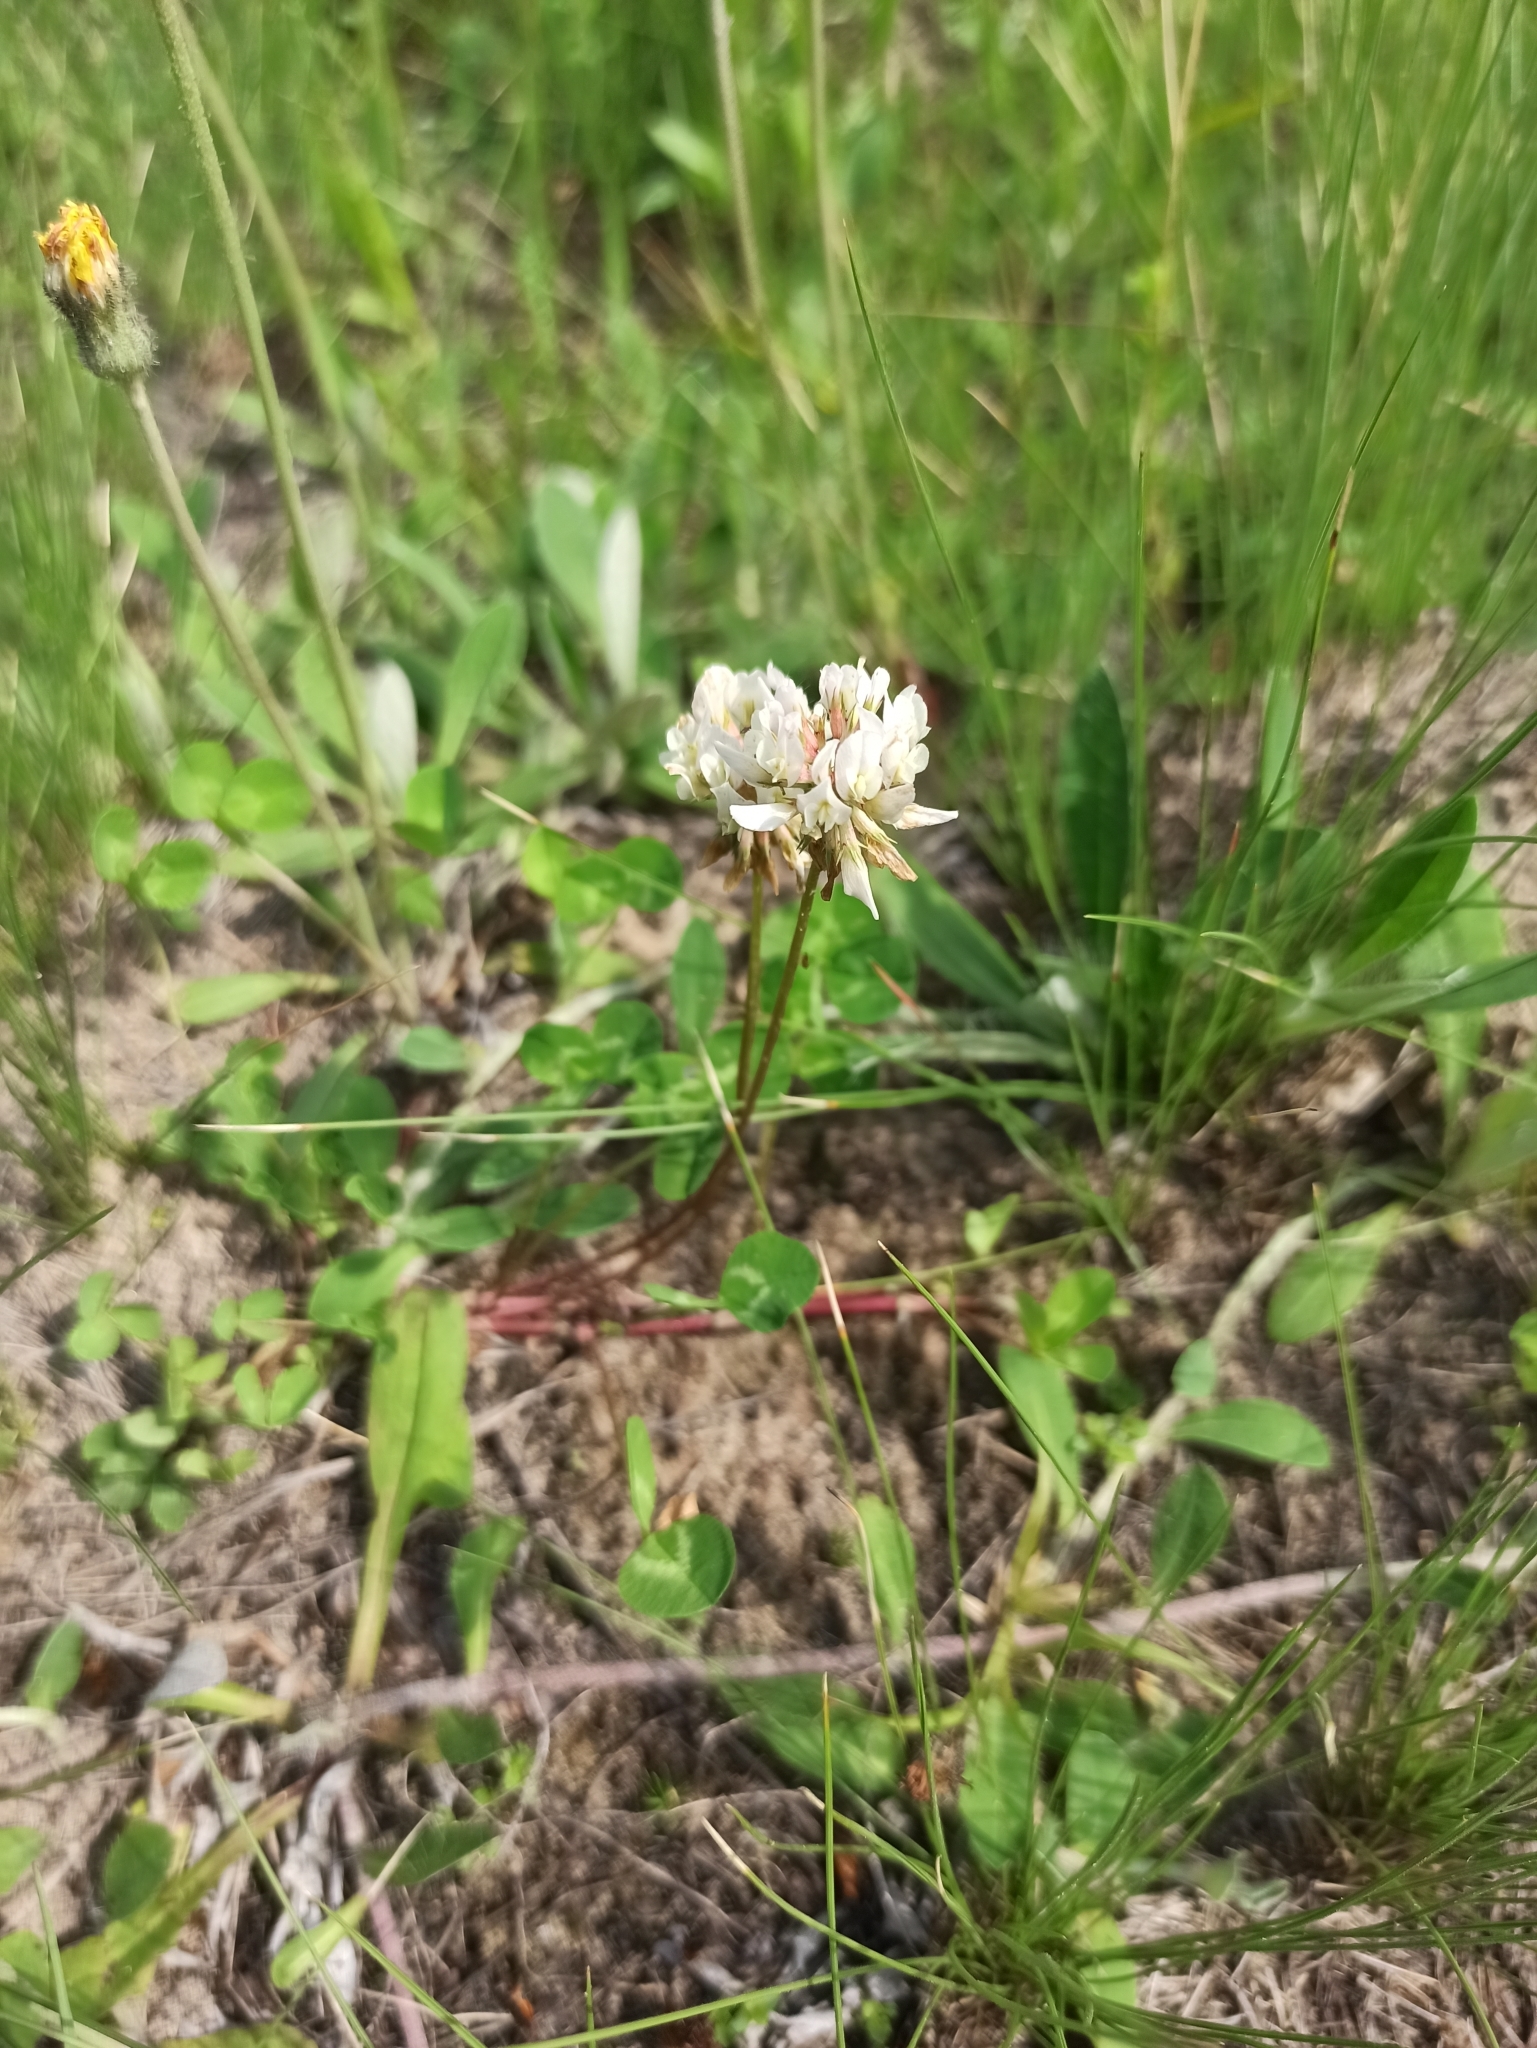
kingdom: Plantae
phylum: Tracheophyta
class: Magnoliopsida
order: Fabales
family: Fabaceae
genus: Trifolium
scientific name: Trifolium repens
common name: White clover
